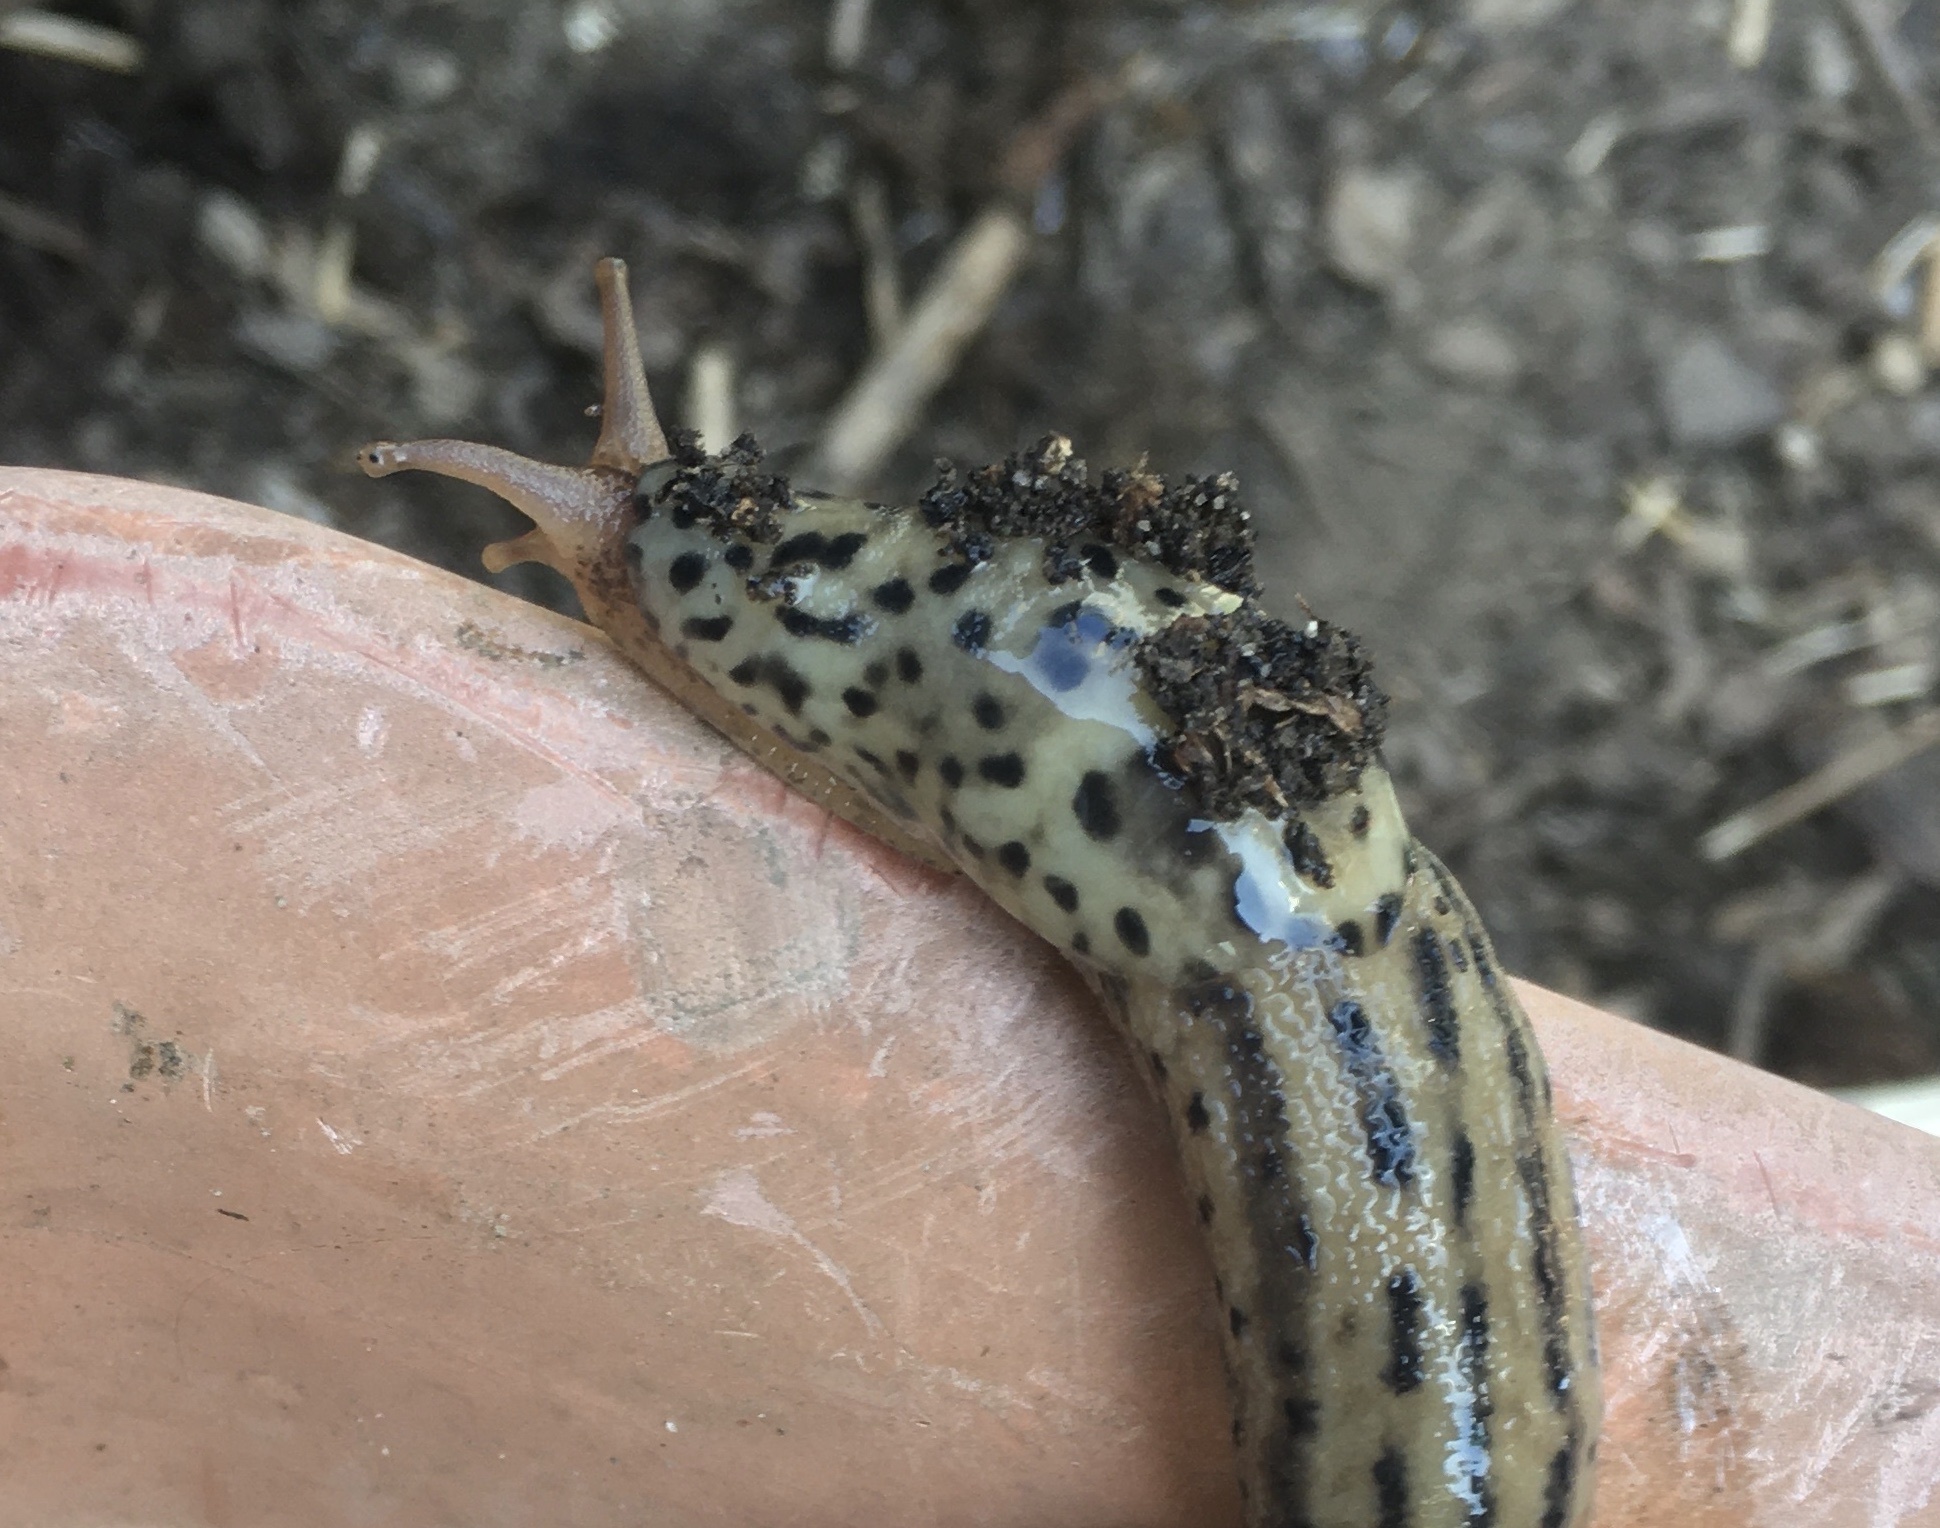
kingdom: Animalia
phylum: Mollusca
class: Gastropoda
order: Stylommatophora
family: Limacidae
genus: Limax
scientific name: Limax maximus
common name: Great grey slug
